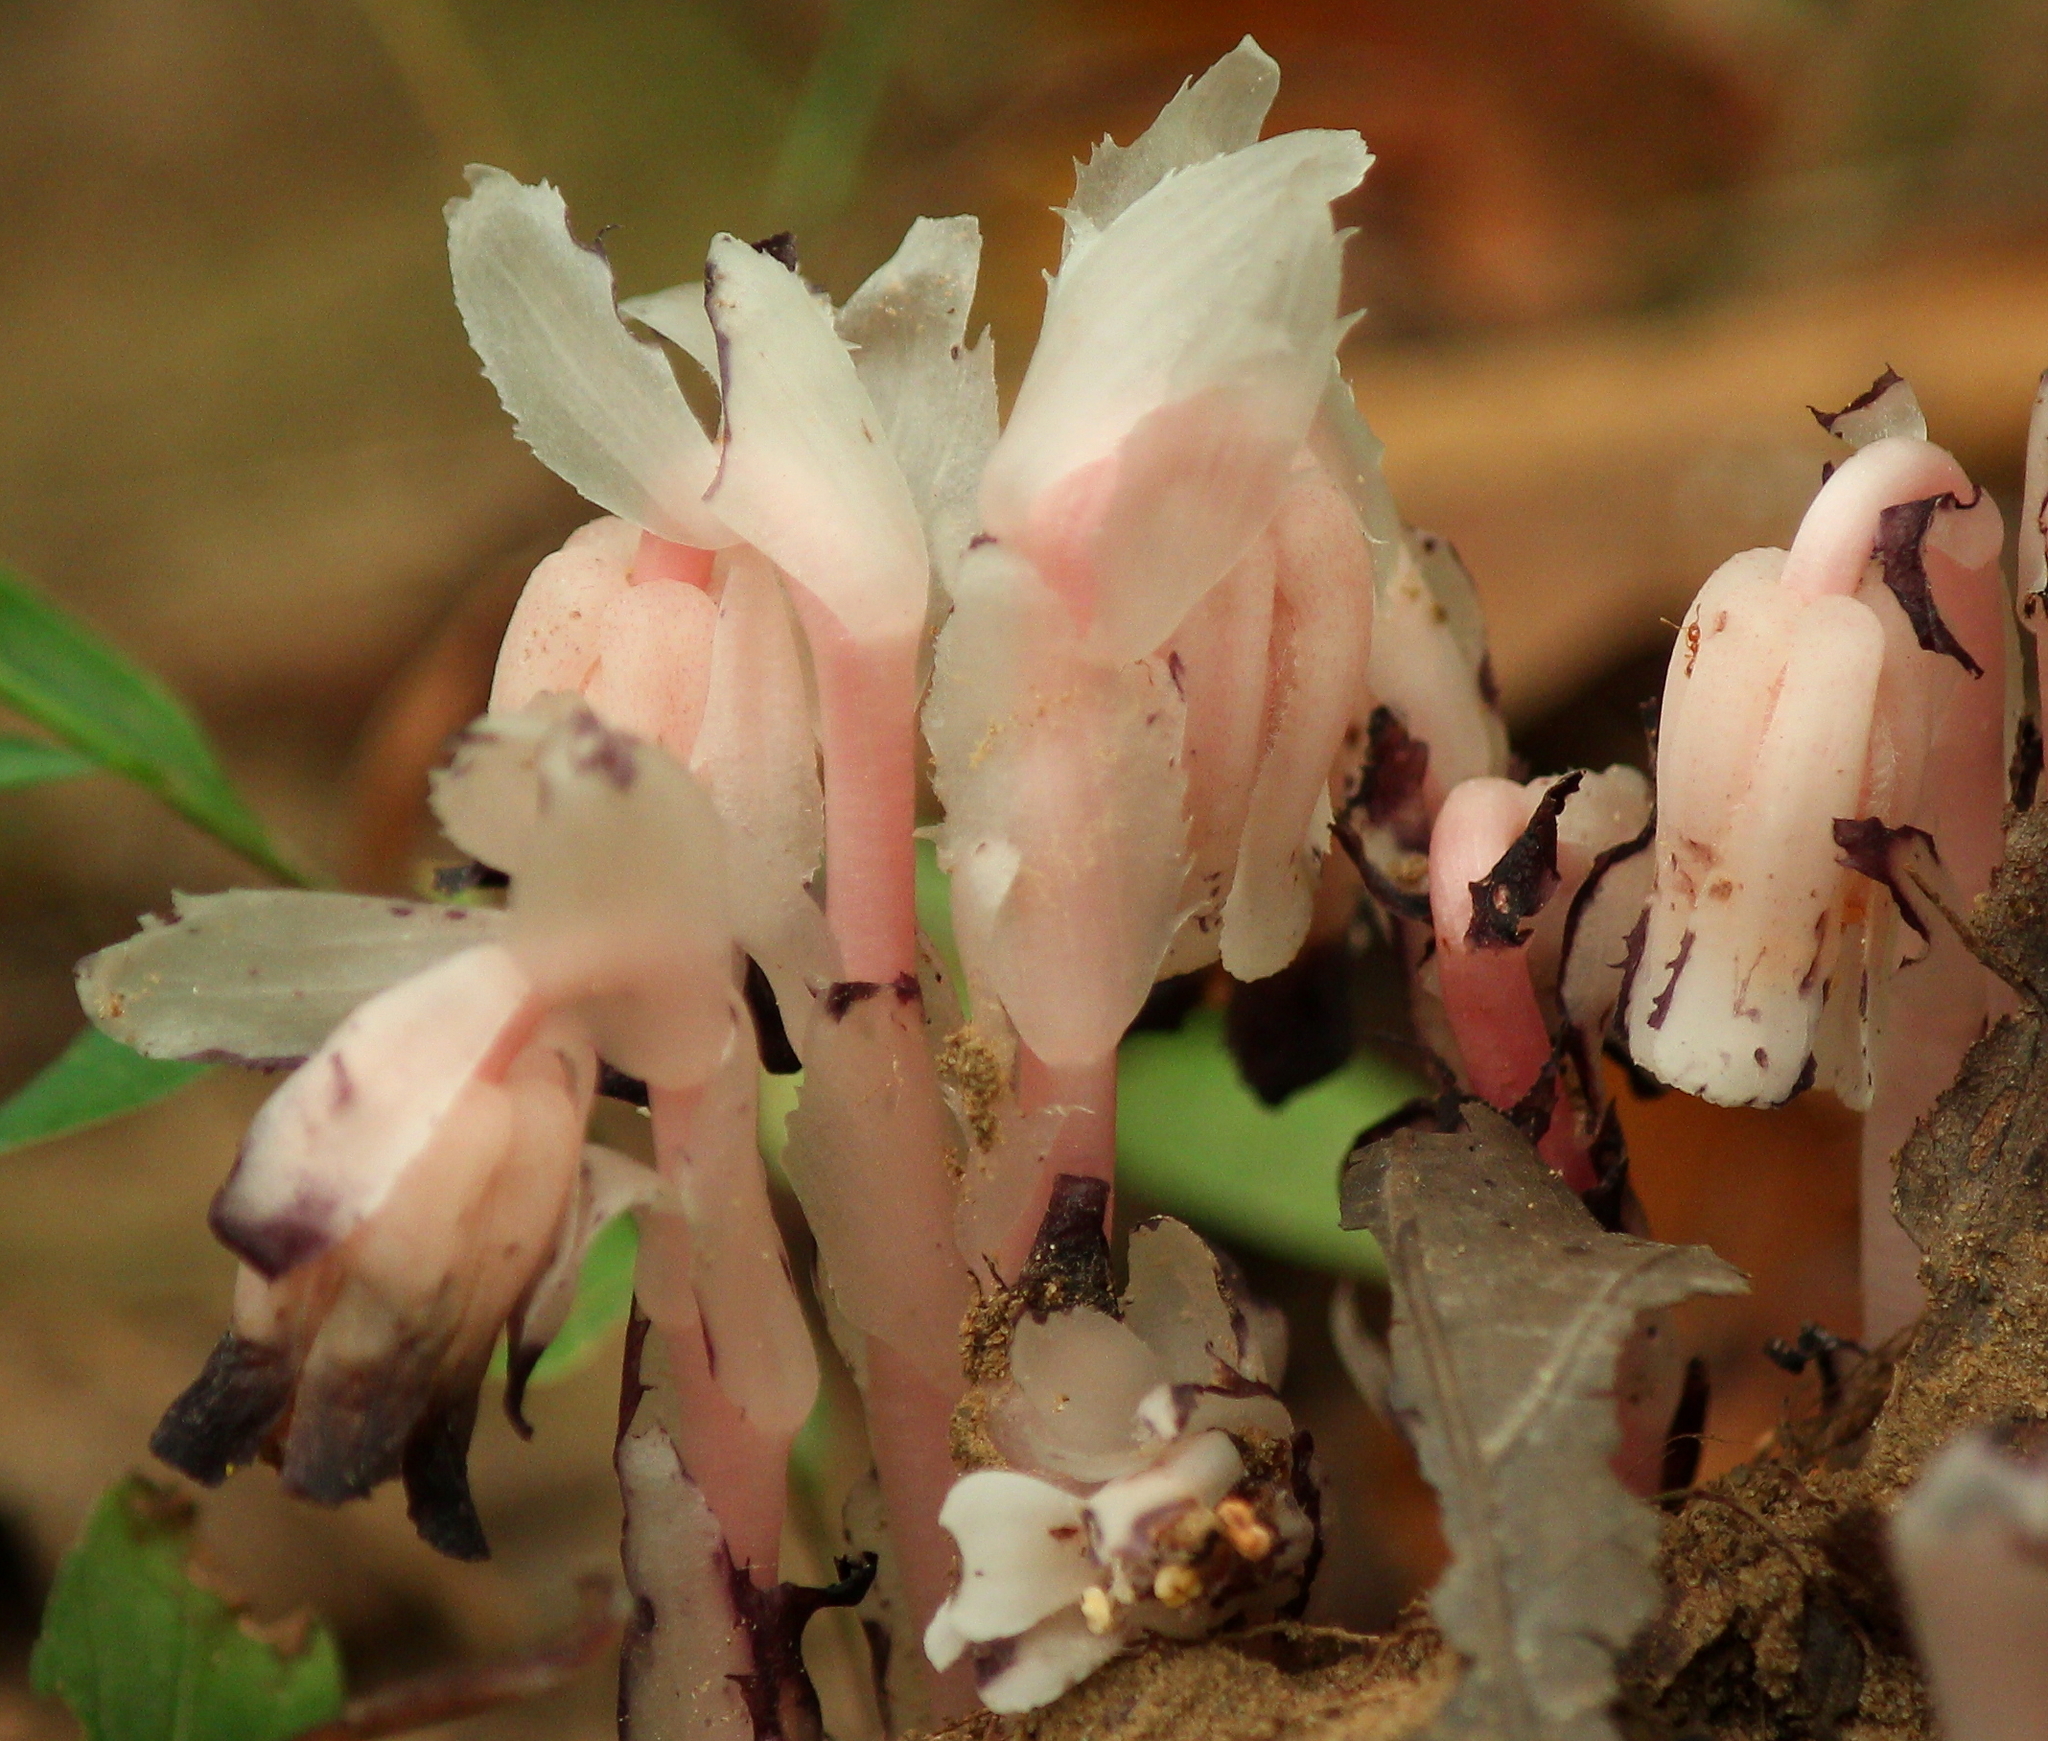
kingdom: Plantae
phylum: Tracheophyta
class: Magnoliopsida
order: Ericales
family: Ericaceae
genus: Monotropa
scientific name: Monotropa uniflora
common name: Convulsion root
